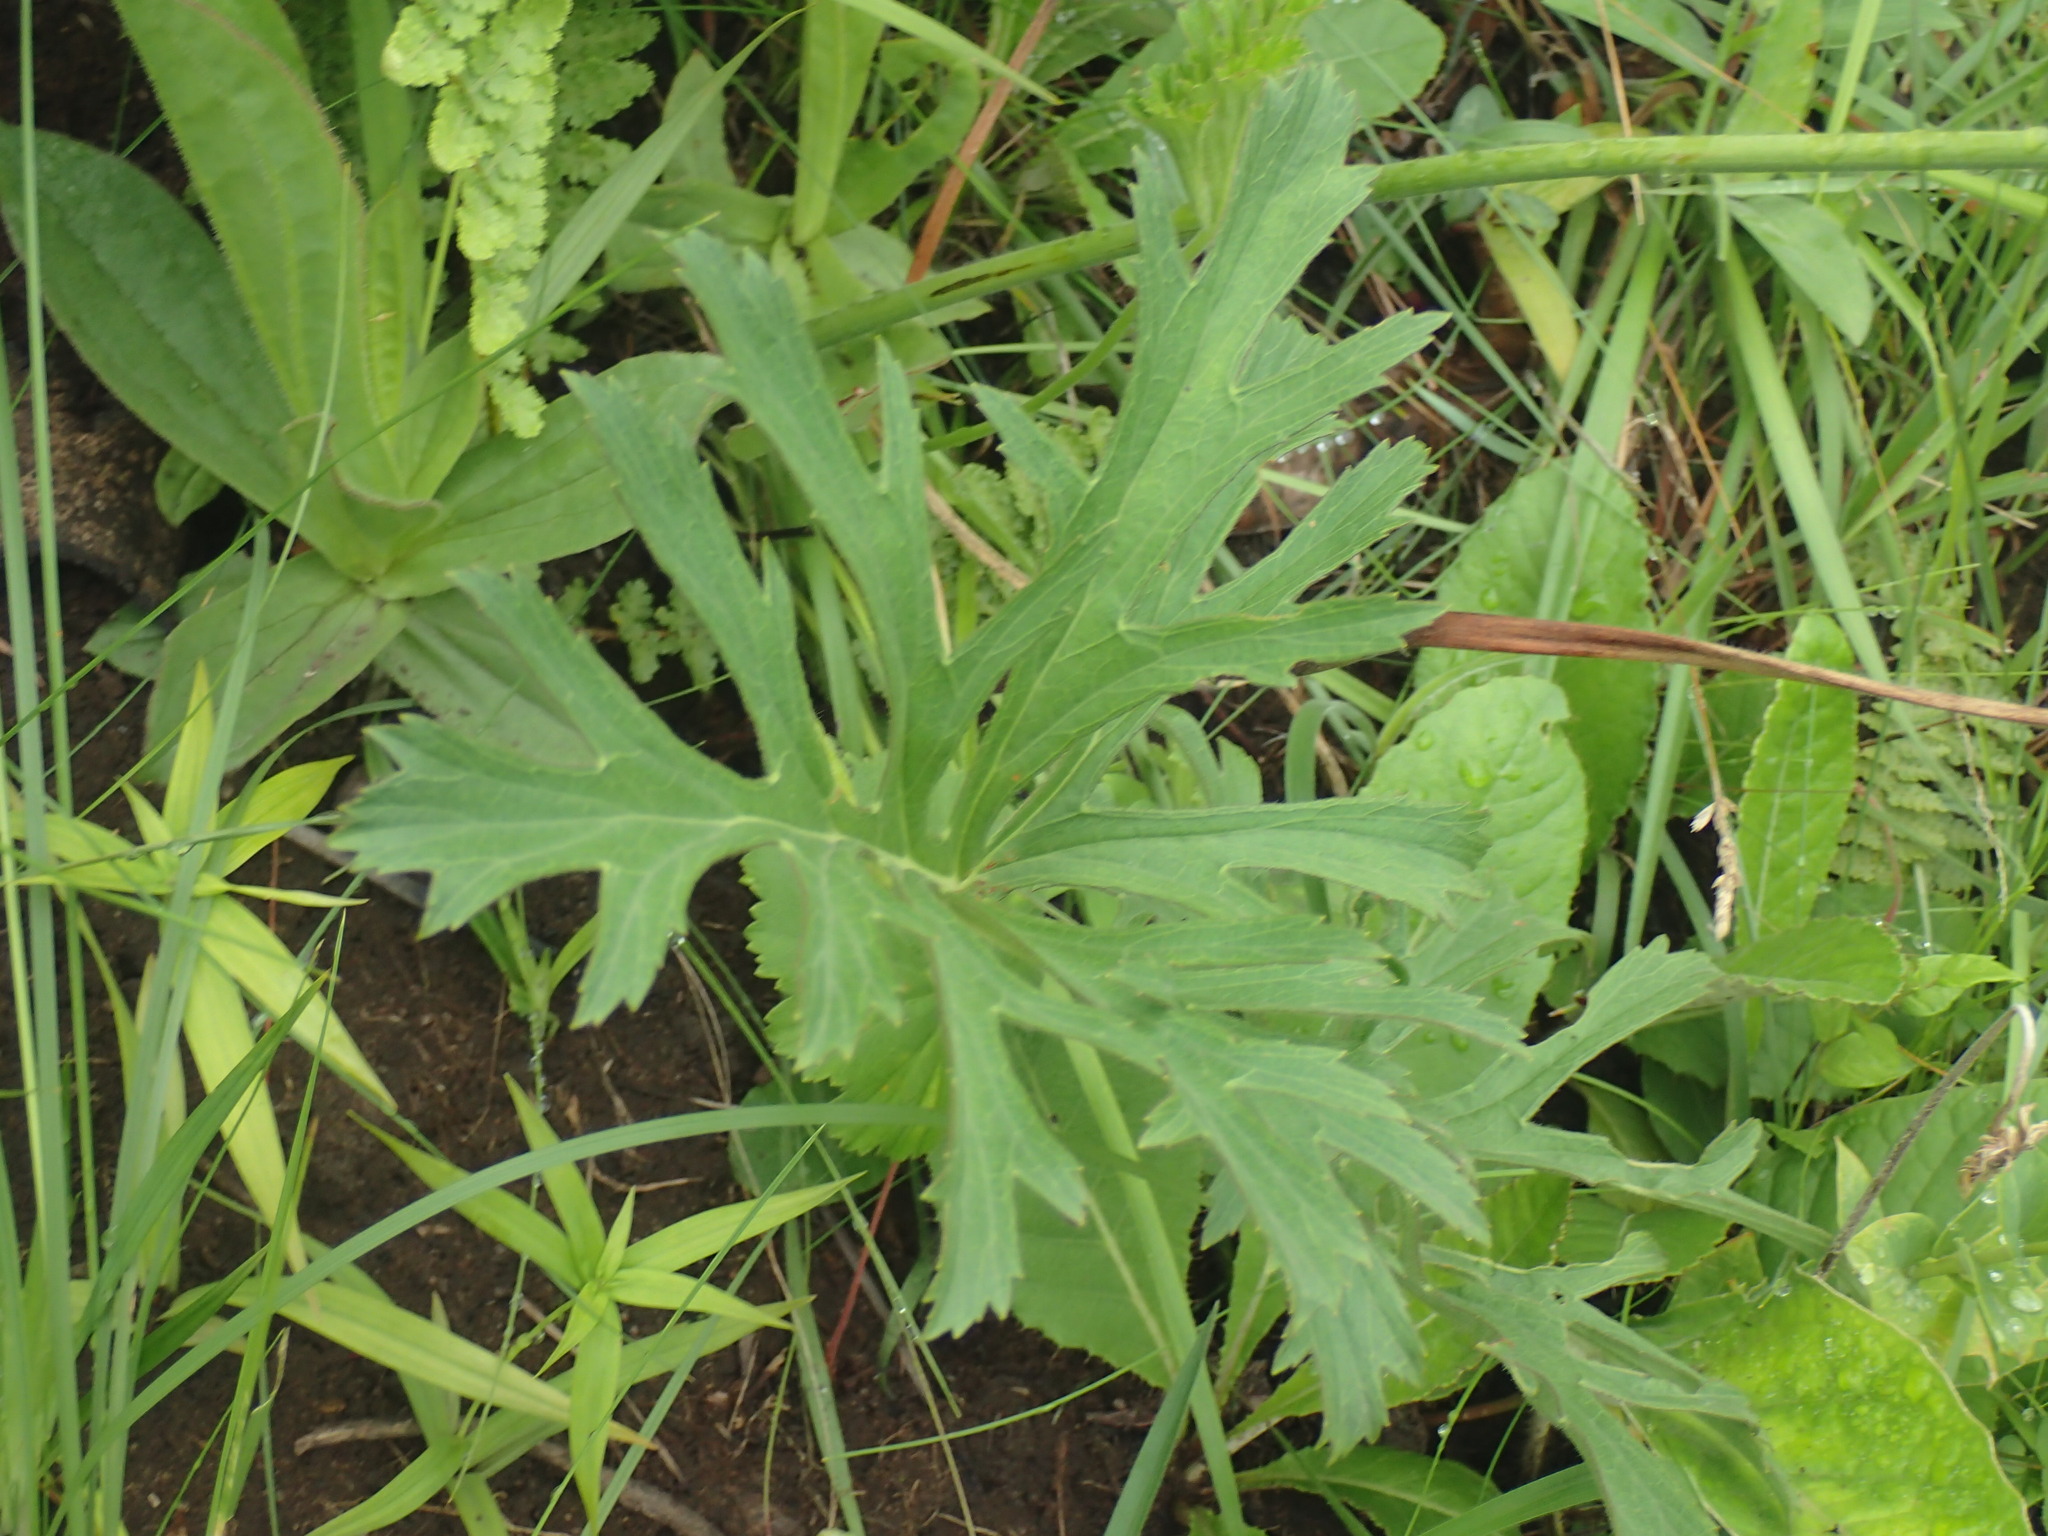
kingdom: Plantae
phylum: Tracheophyta
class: Magnoliopsida
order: Geraniales
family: Geraniaceae
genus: Pelargonium
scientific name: Pelargonium luridum
